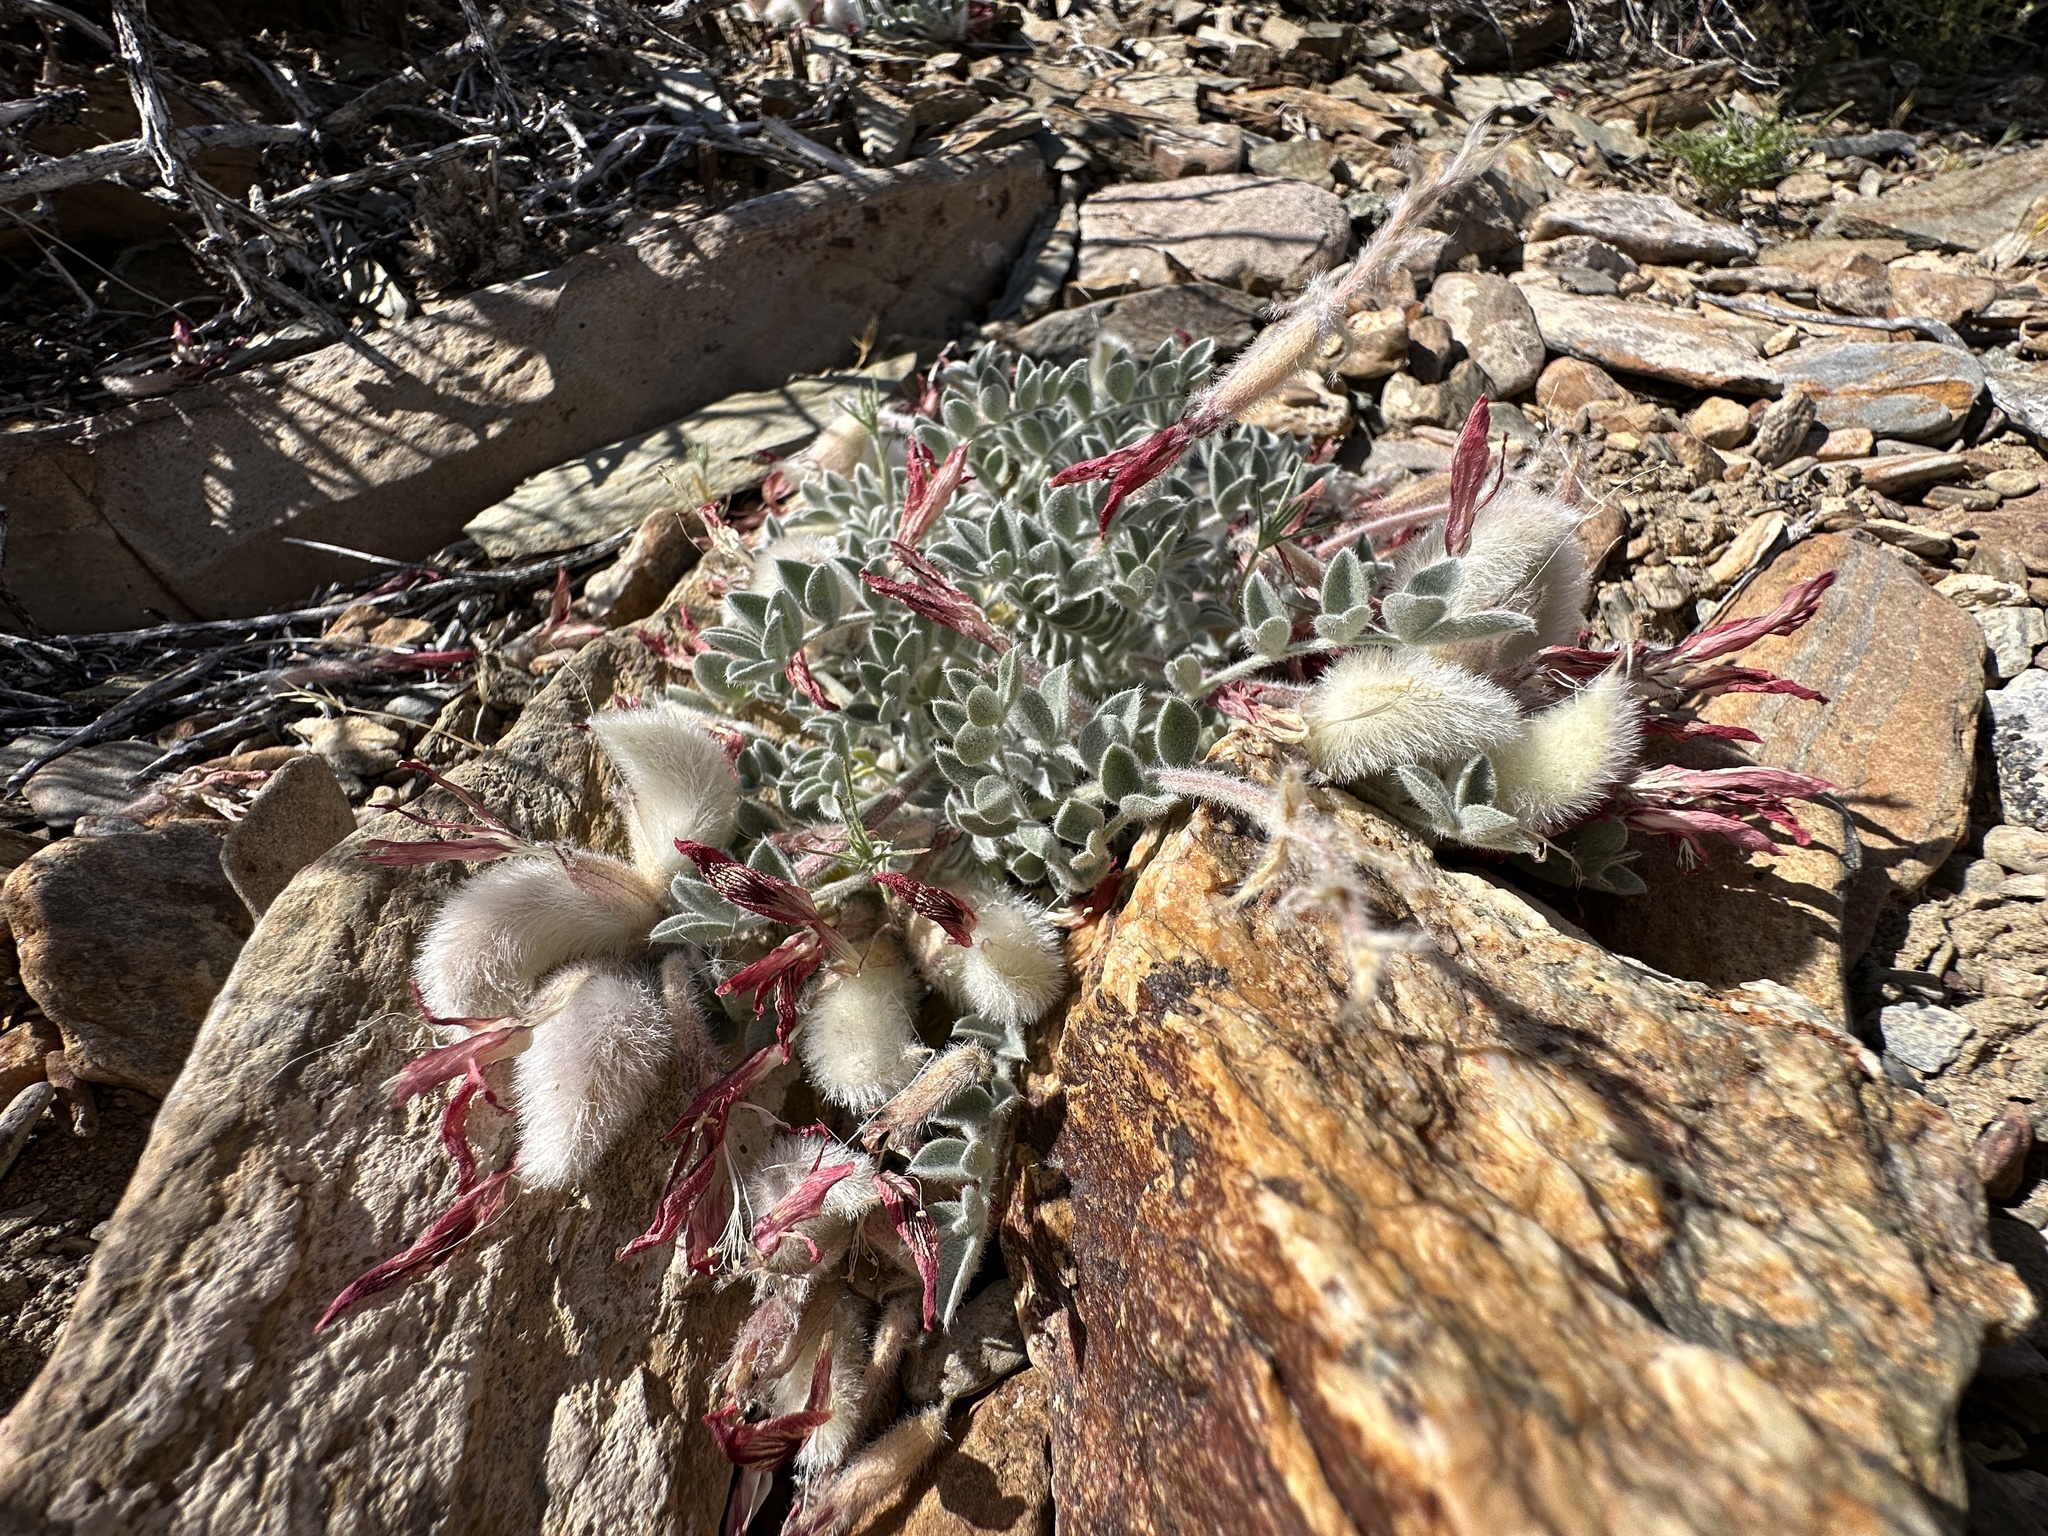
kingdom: Plantae
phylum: Tracheophyta
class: Magnoliopsida
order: Fabales
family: Fabaceae
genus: Astragalus
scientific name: Astragalus coccineus
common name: Scarlet milk-vetch
